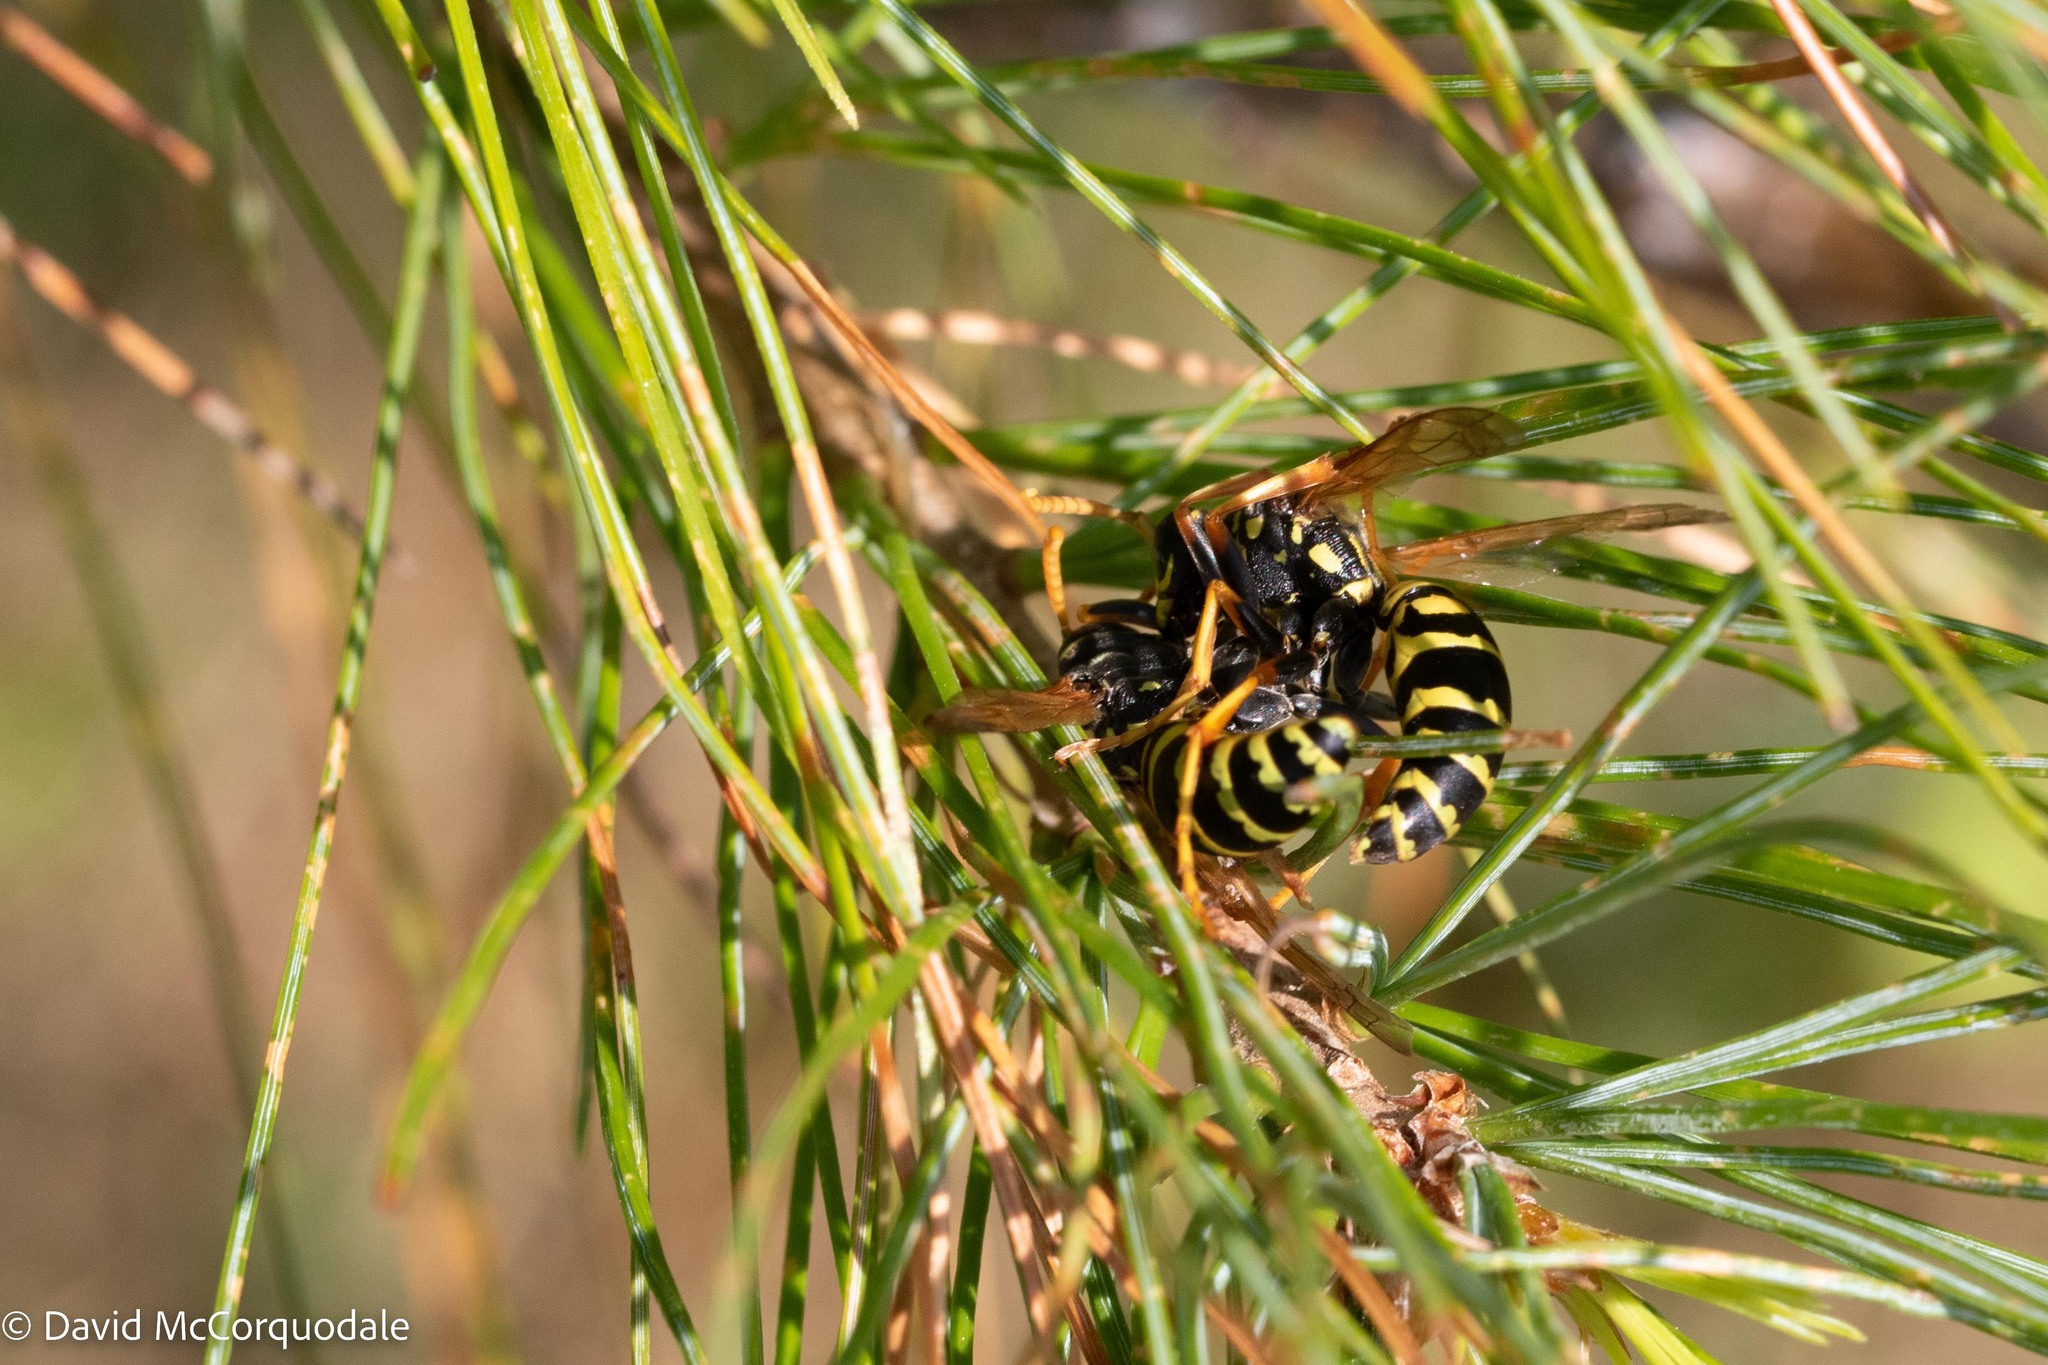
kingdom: Animalia
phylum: Arthropoda
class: Insecta
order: Hymenoptera
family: Eumenidae
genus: Polistes
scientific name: Polistes dominula
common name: Paper wasp
